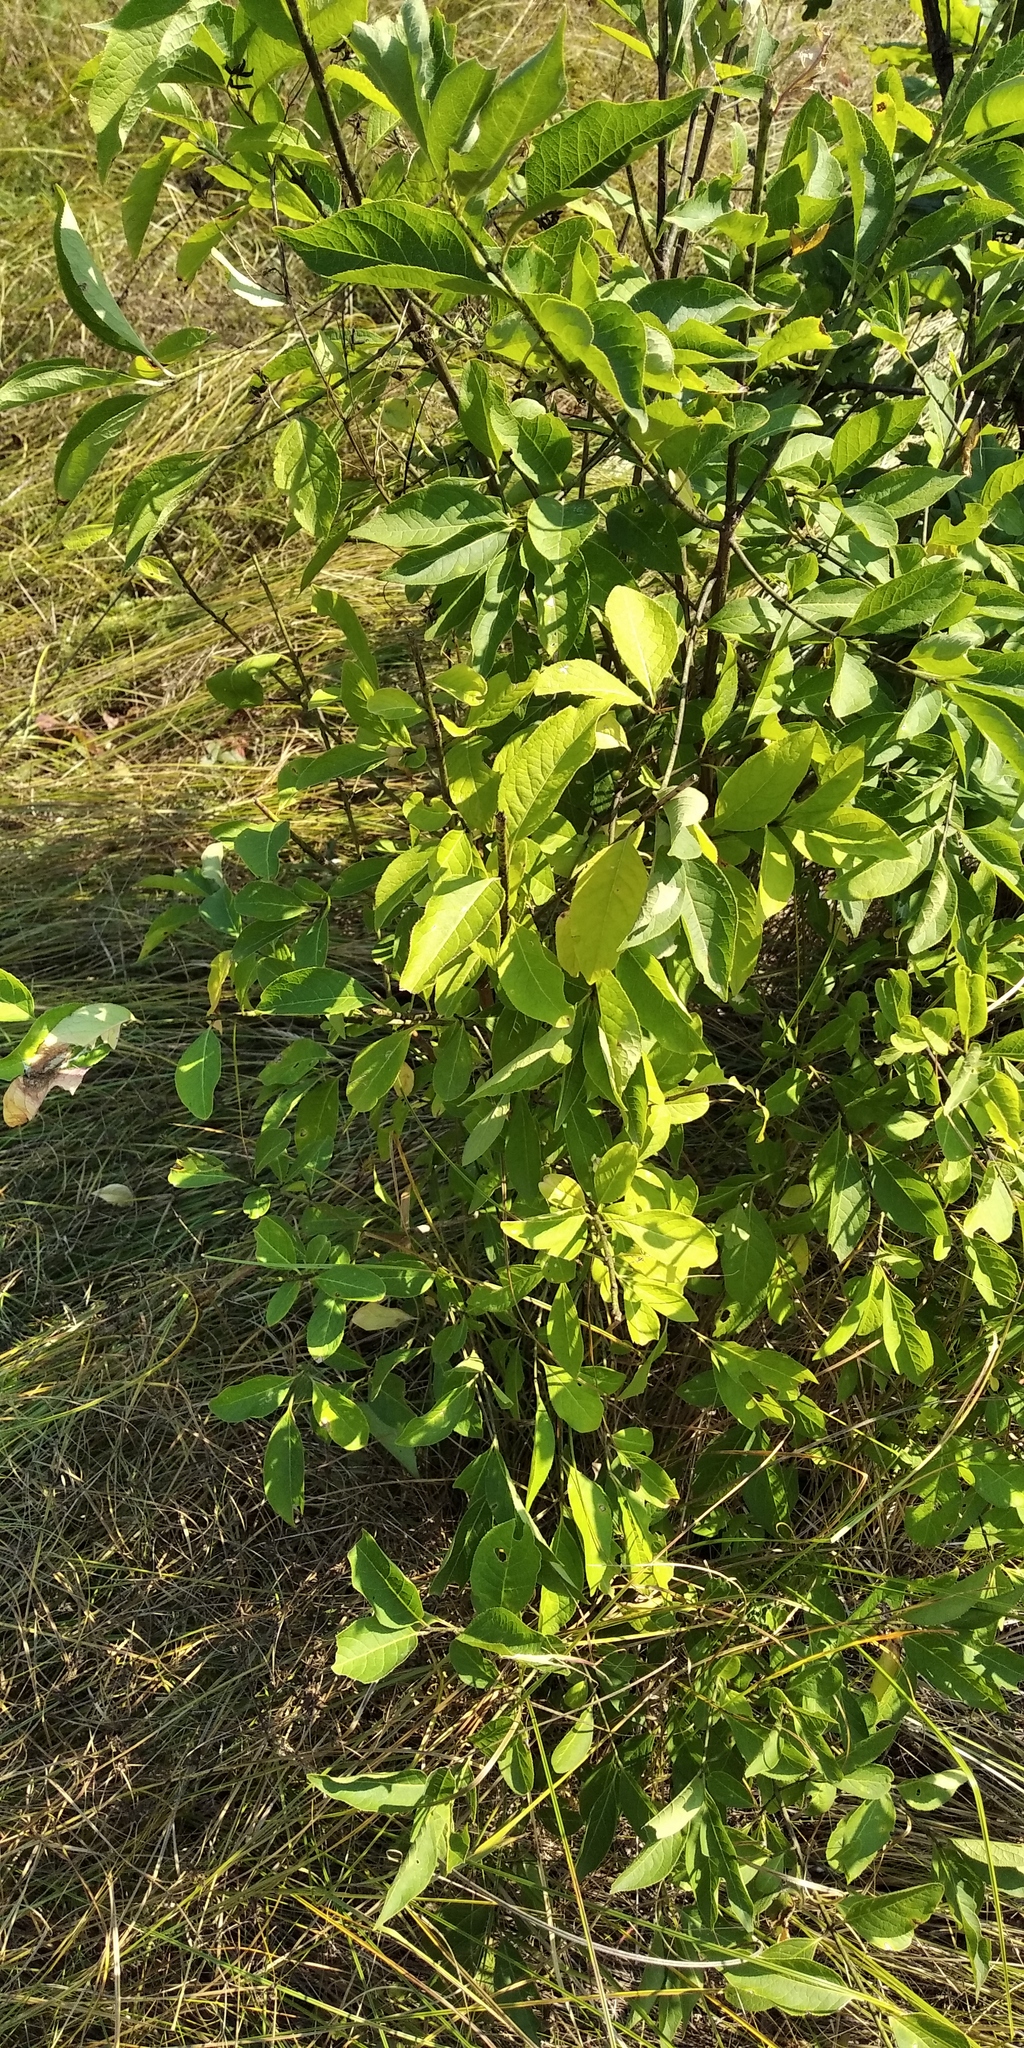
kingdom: Plantae
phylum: Tracheophyta
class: Magnoliopsida
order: Rosales
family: Rosaceae
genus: Prunus
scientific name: Prunus padus
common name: Bird cherry
